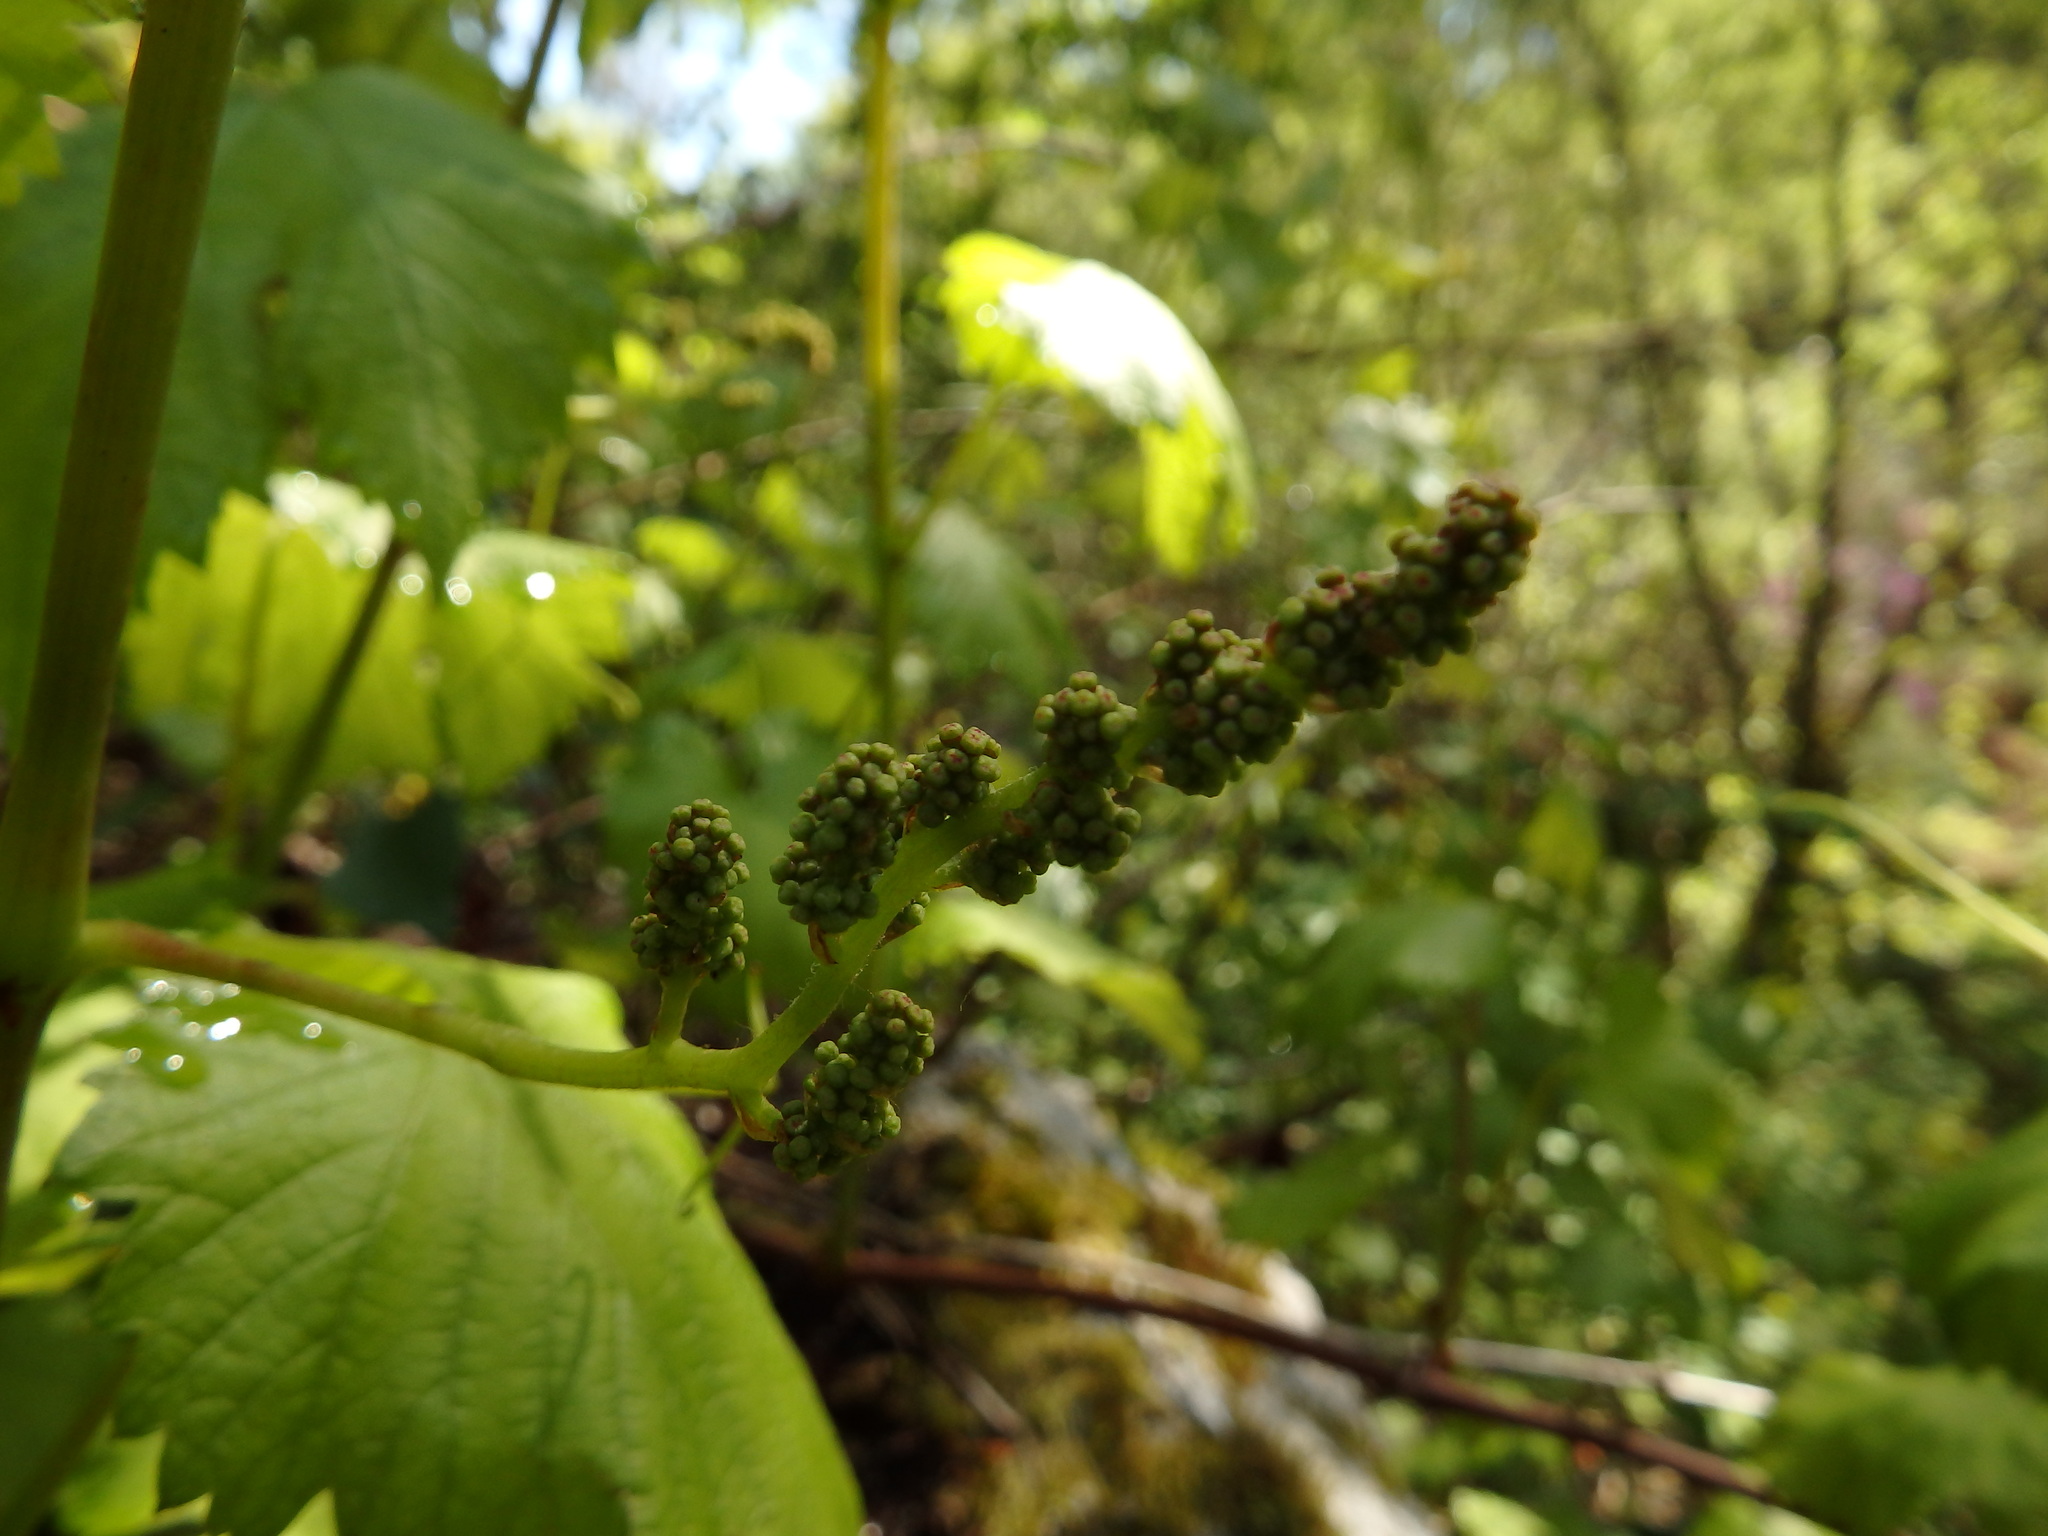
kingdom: Plantae
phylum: Tracheophyta
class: Magnoliopsida
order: Vitales
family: Vitaceae
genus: Vitis
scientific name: Vitis vinifera
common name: Grape-vine
